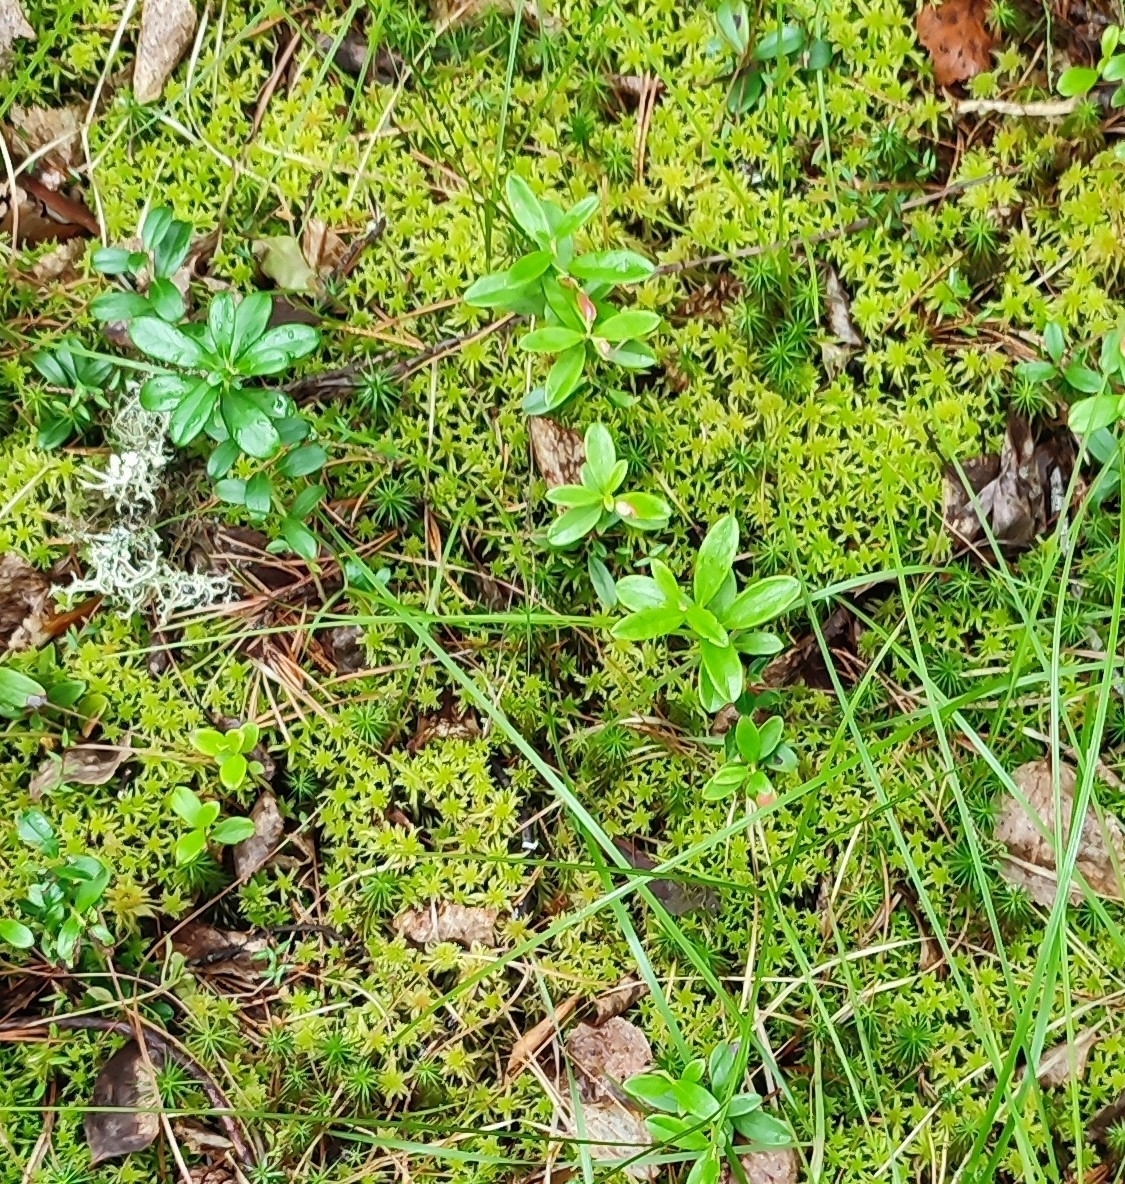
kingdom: Plantae
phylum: Tracheophyta
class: Magnoliopsida
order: Ericales
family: Ericaceae
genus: Vaccinium
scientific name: Vaccinium vitis-idaea
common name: Cowberry
